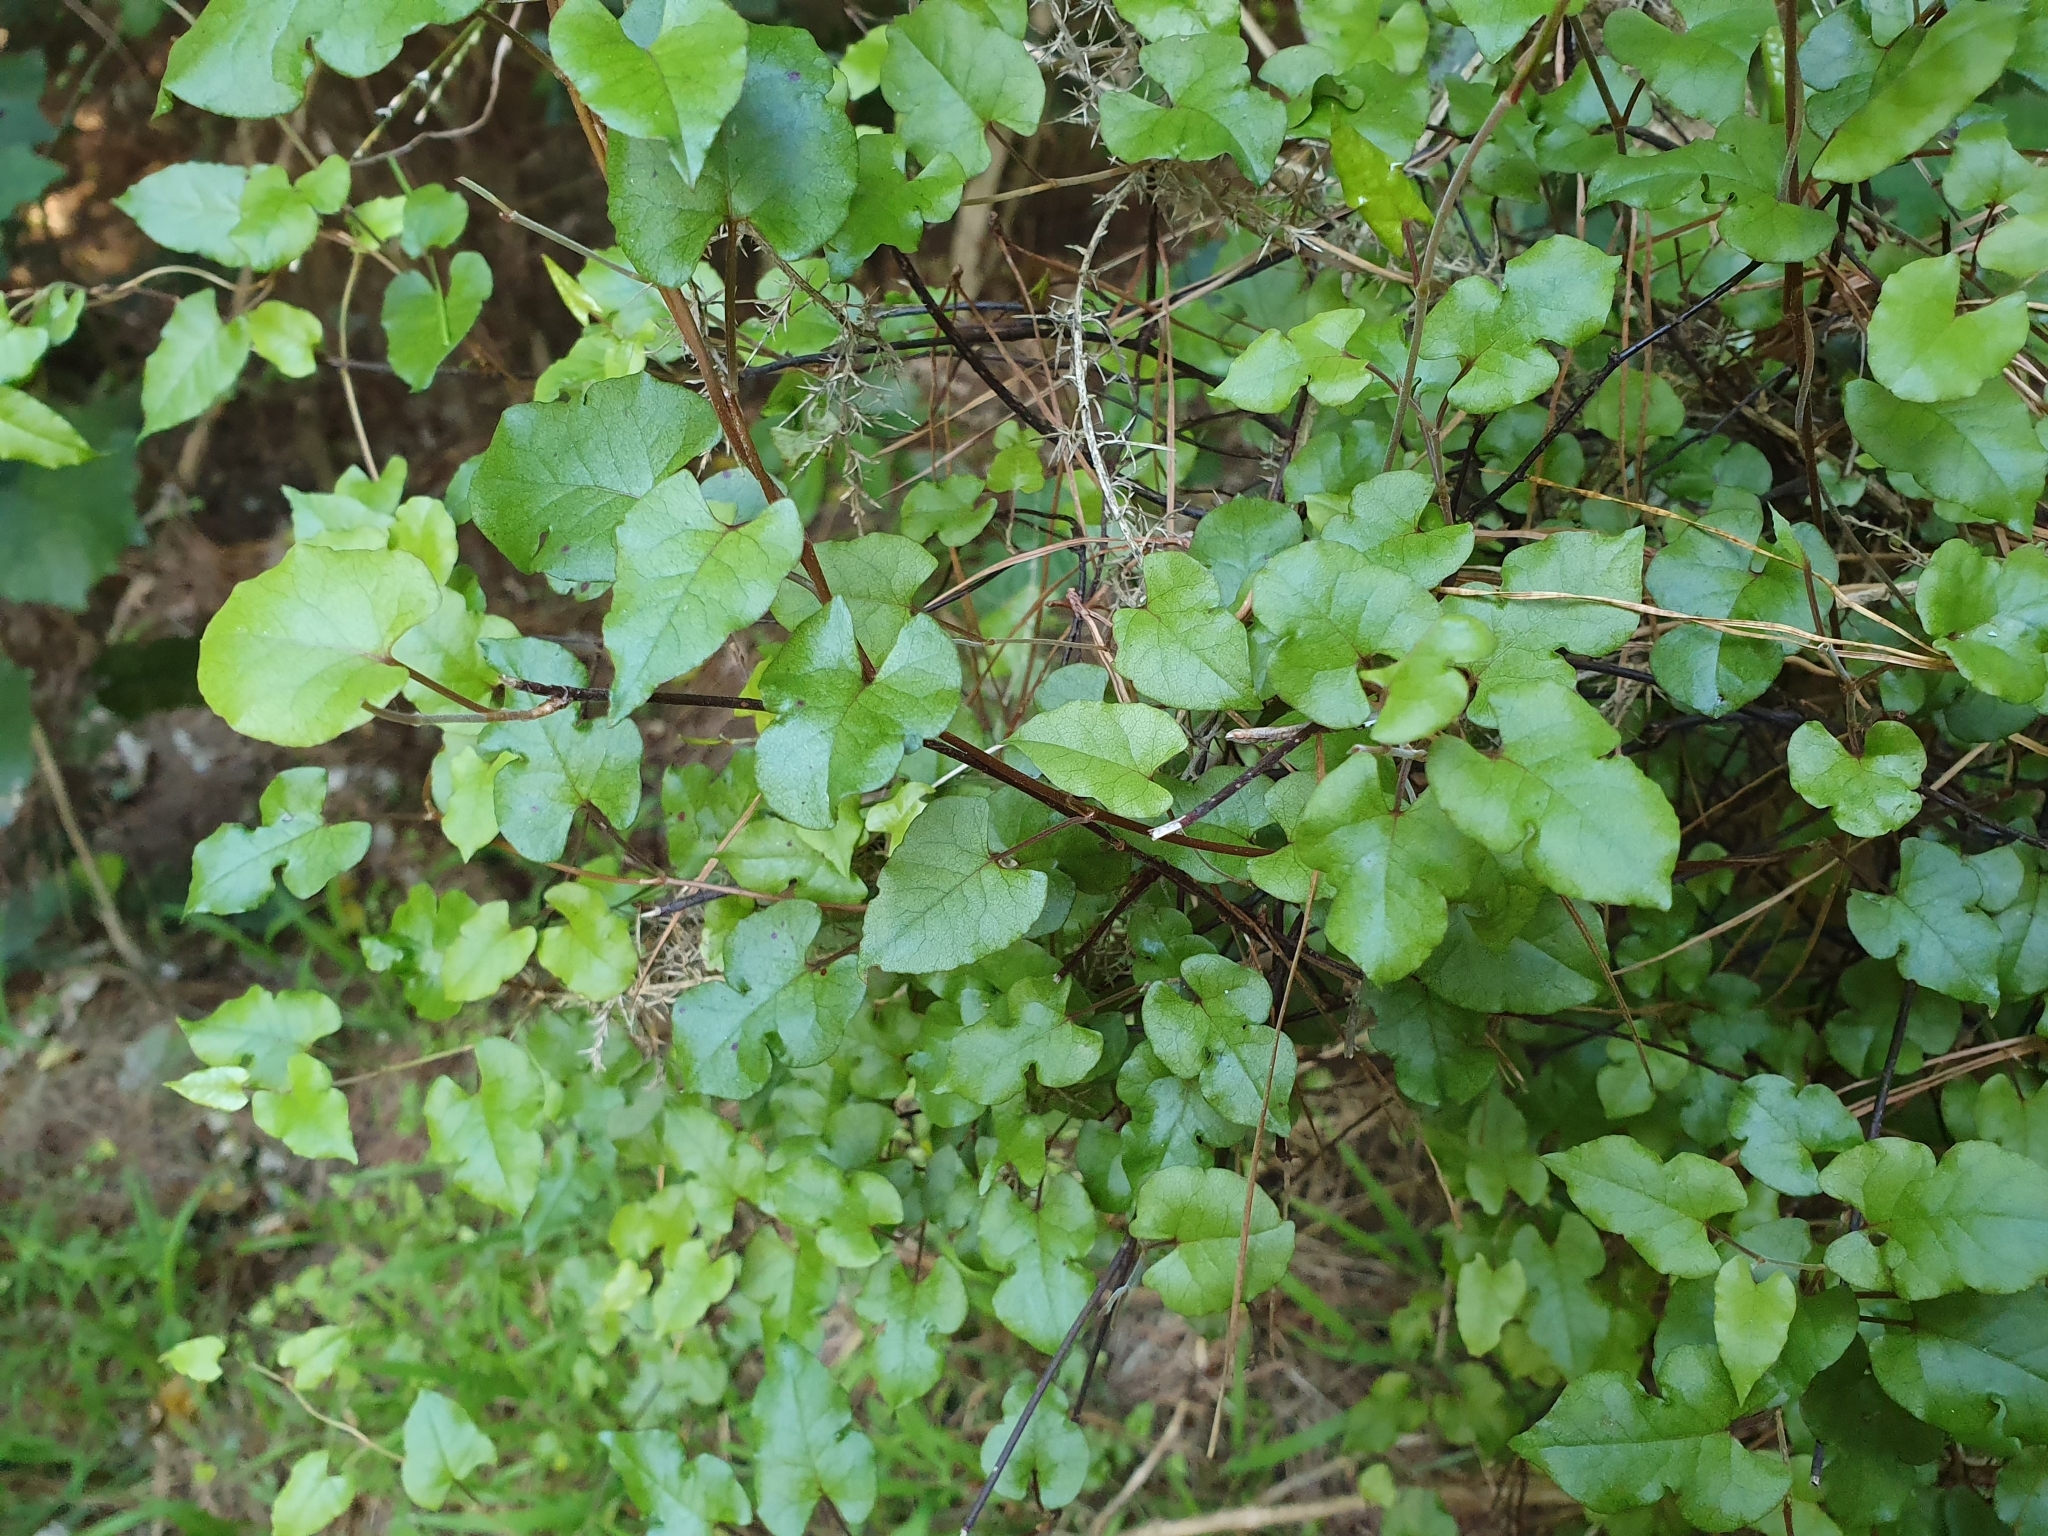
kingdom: Plantae
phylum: Tracheophyta
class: Magnoliopsida
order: Caryophyllales
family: Polygonaceae
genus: Muehlenbeckia
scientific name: Muehlenbeckia australis
